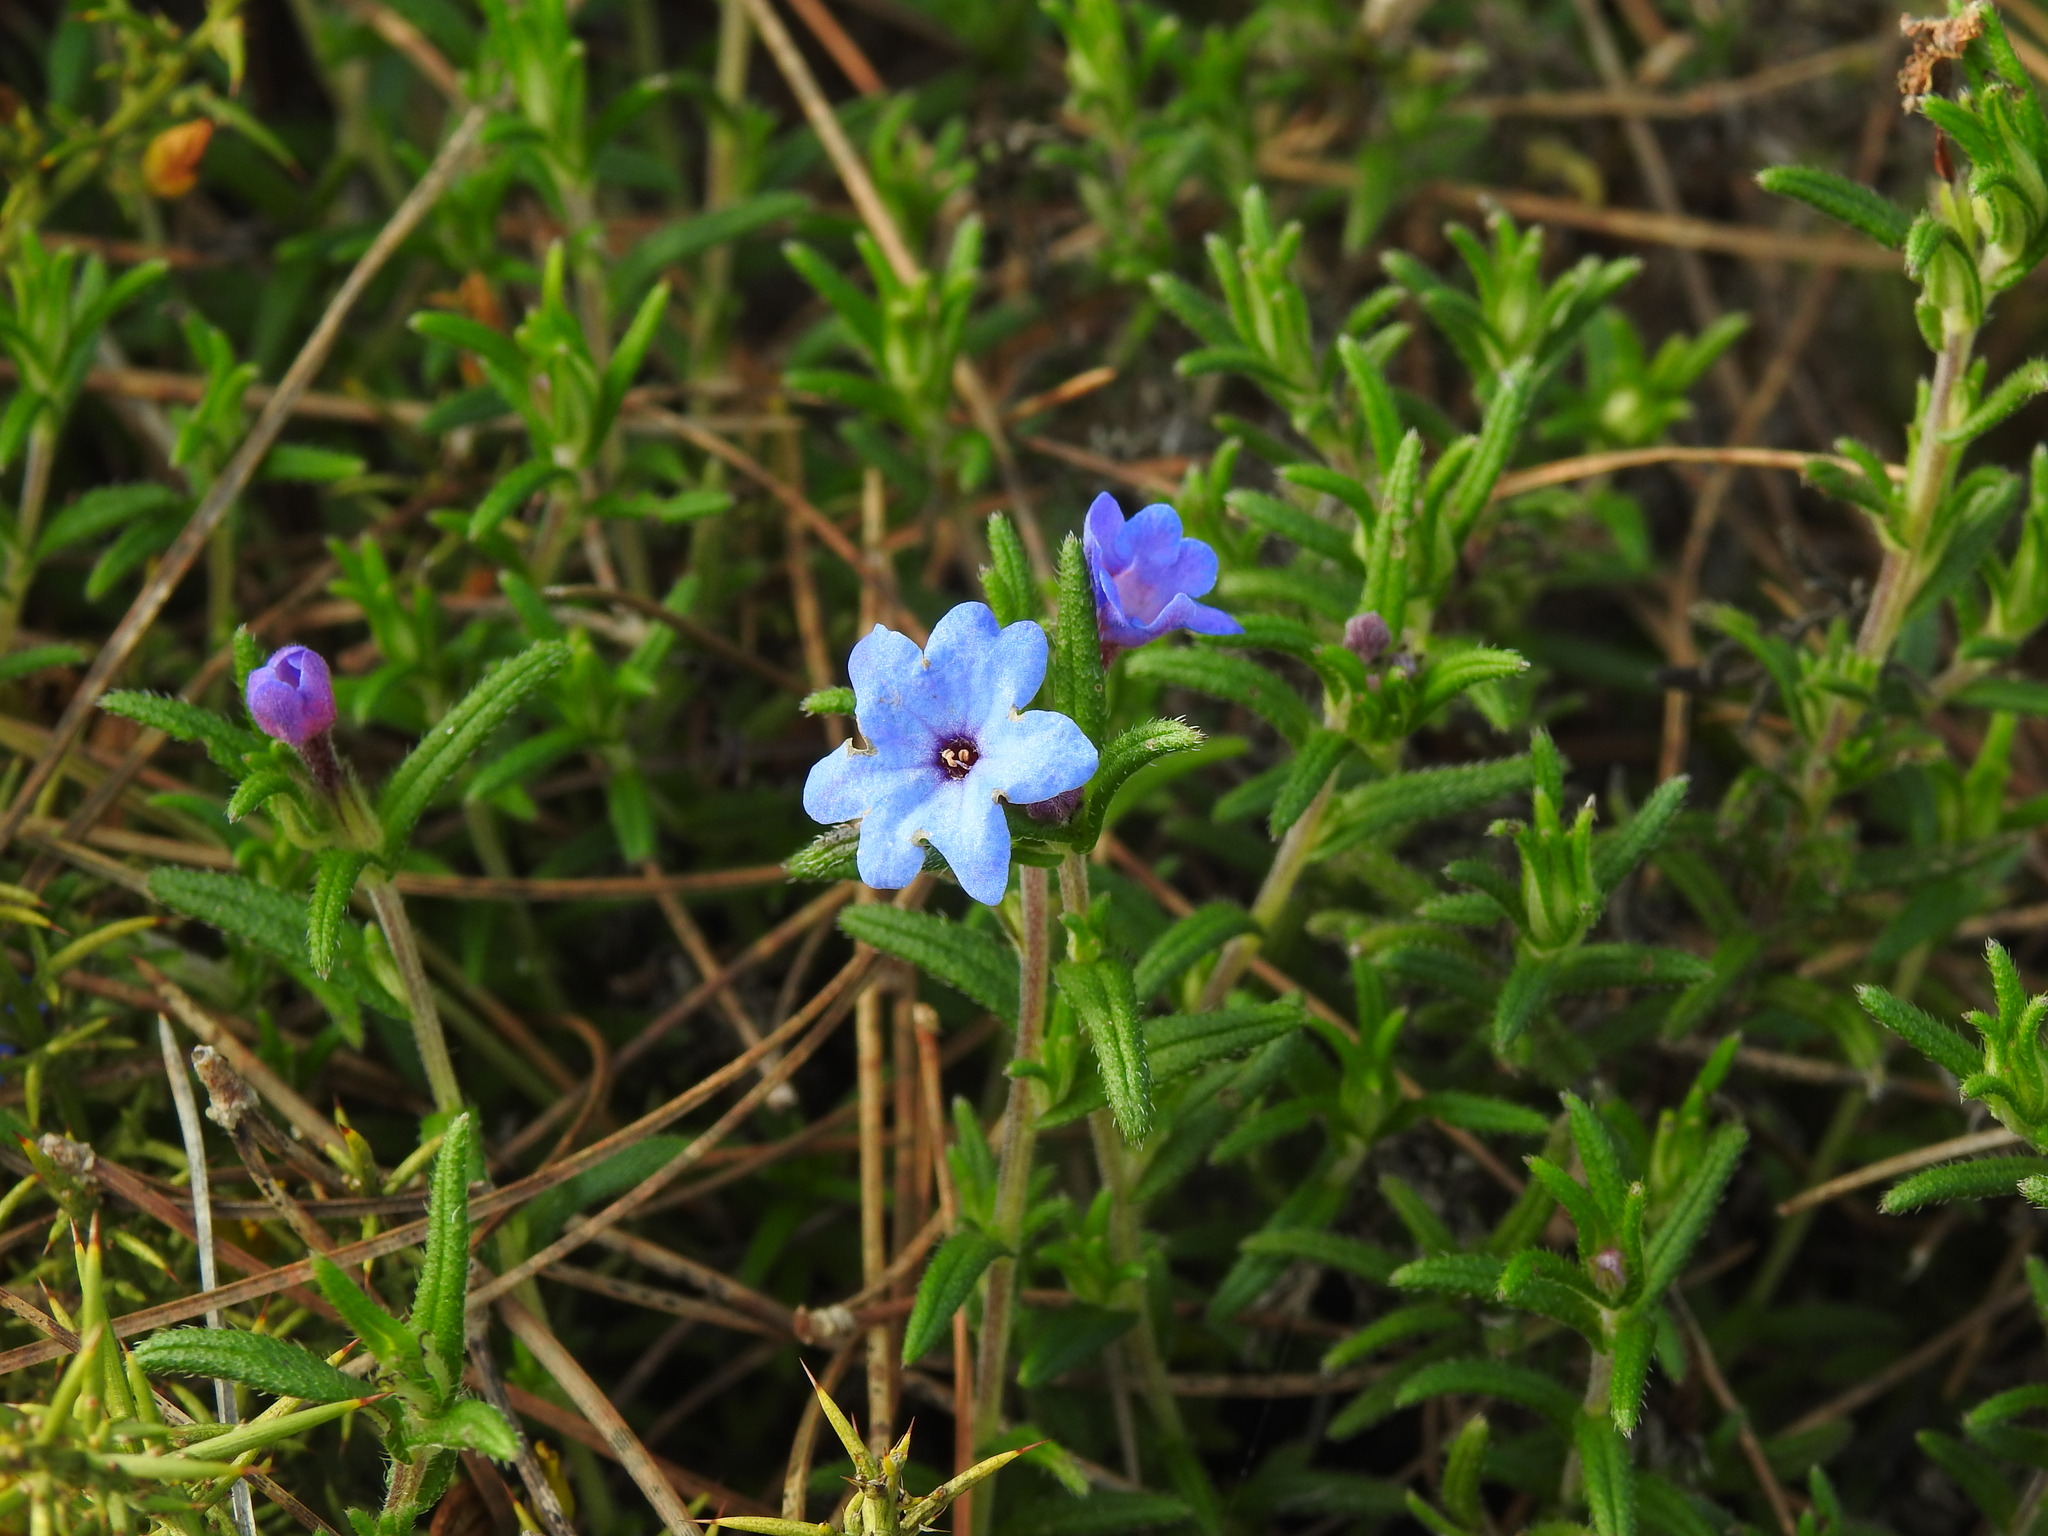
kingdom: Plantae
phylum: Tracheophyta
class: Magnoliopsida
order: Boraginales
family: Boraginaceae
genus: Glandora
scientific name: Glandora prostrata
